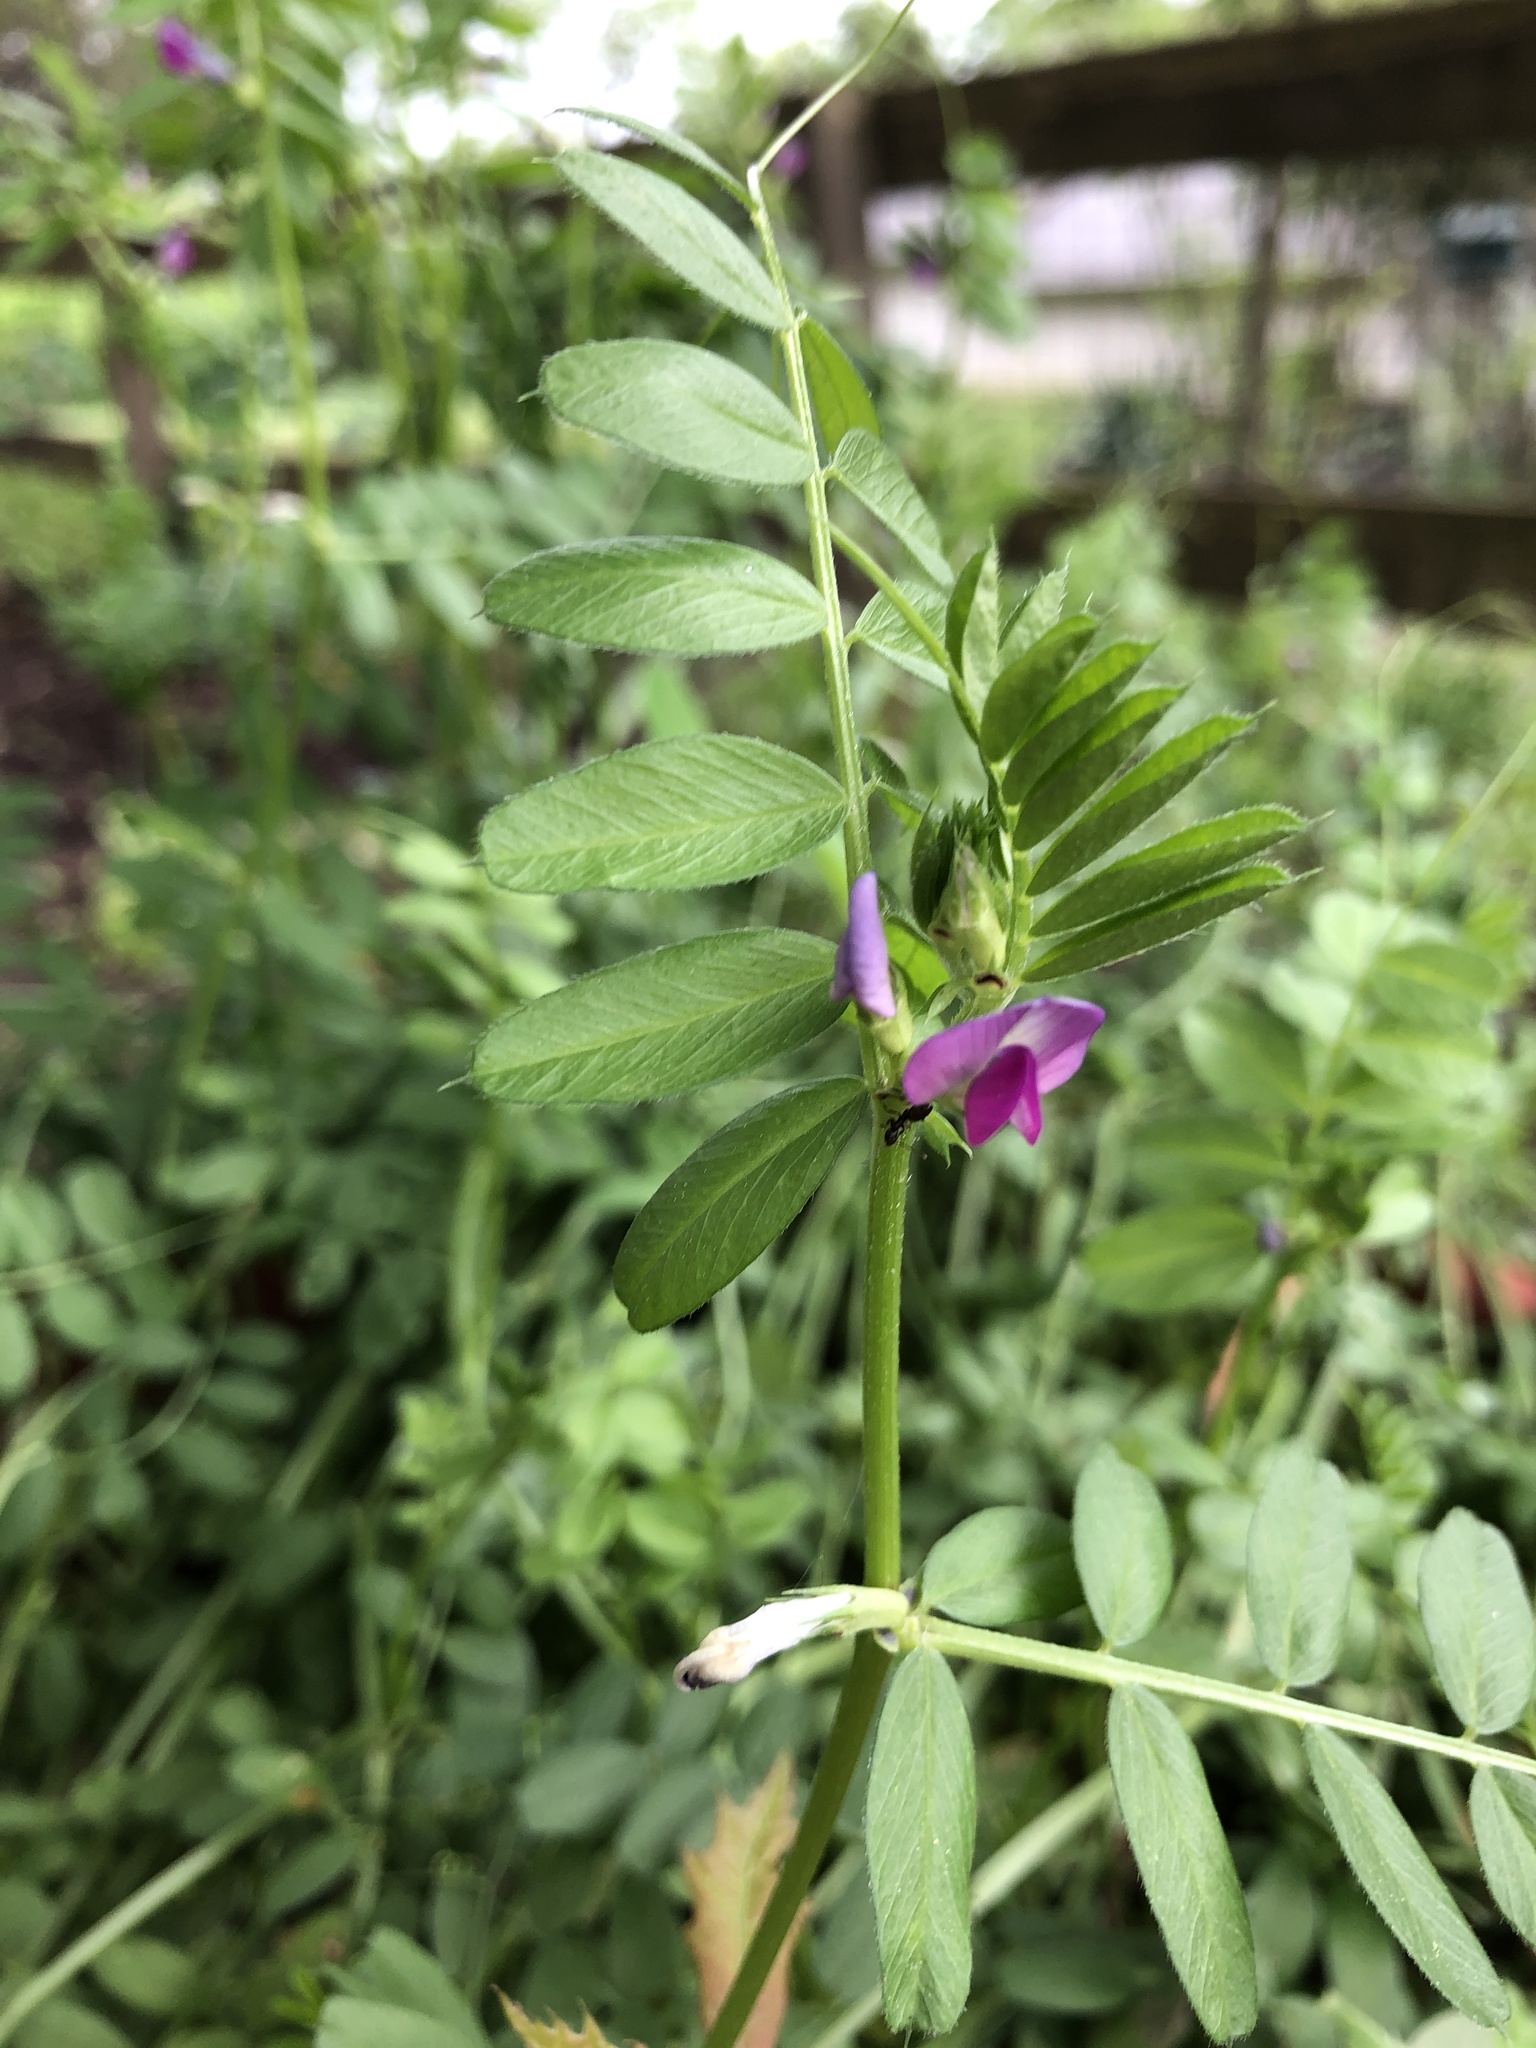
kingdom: Plantae
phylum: Tracheophyta
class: Magnoliopsida
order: Fabales
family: Fabaceae
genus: Vicia
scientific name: Vicia sativa
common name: Garden vetch
